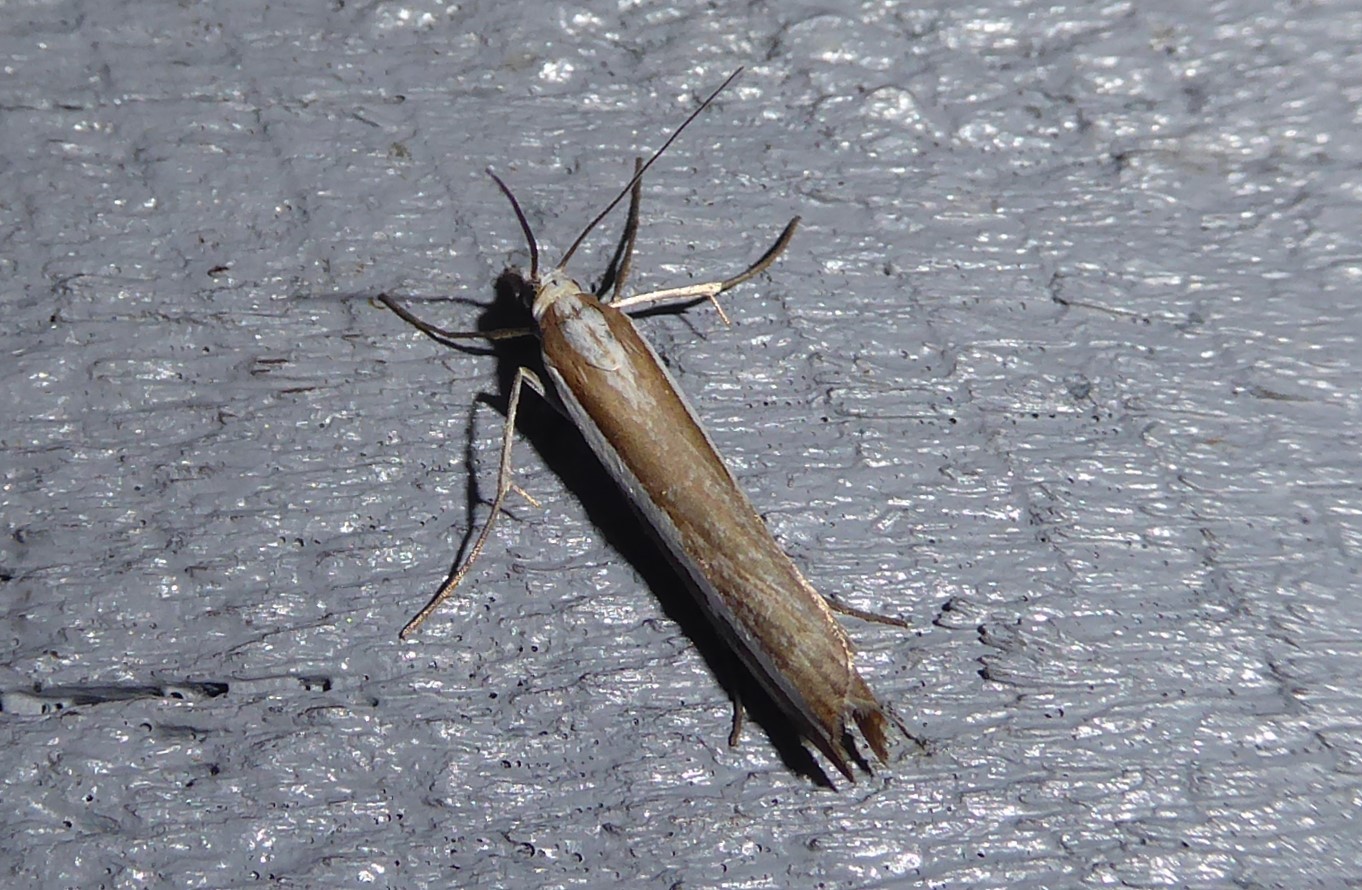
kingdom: Animalia
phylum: Arthropoda
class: Insecta
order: Lepidoptera
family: Crambidae
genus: Orocrambus
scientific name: Orocrambus vittellus
